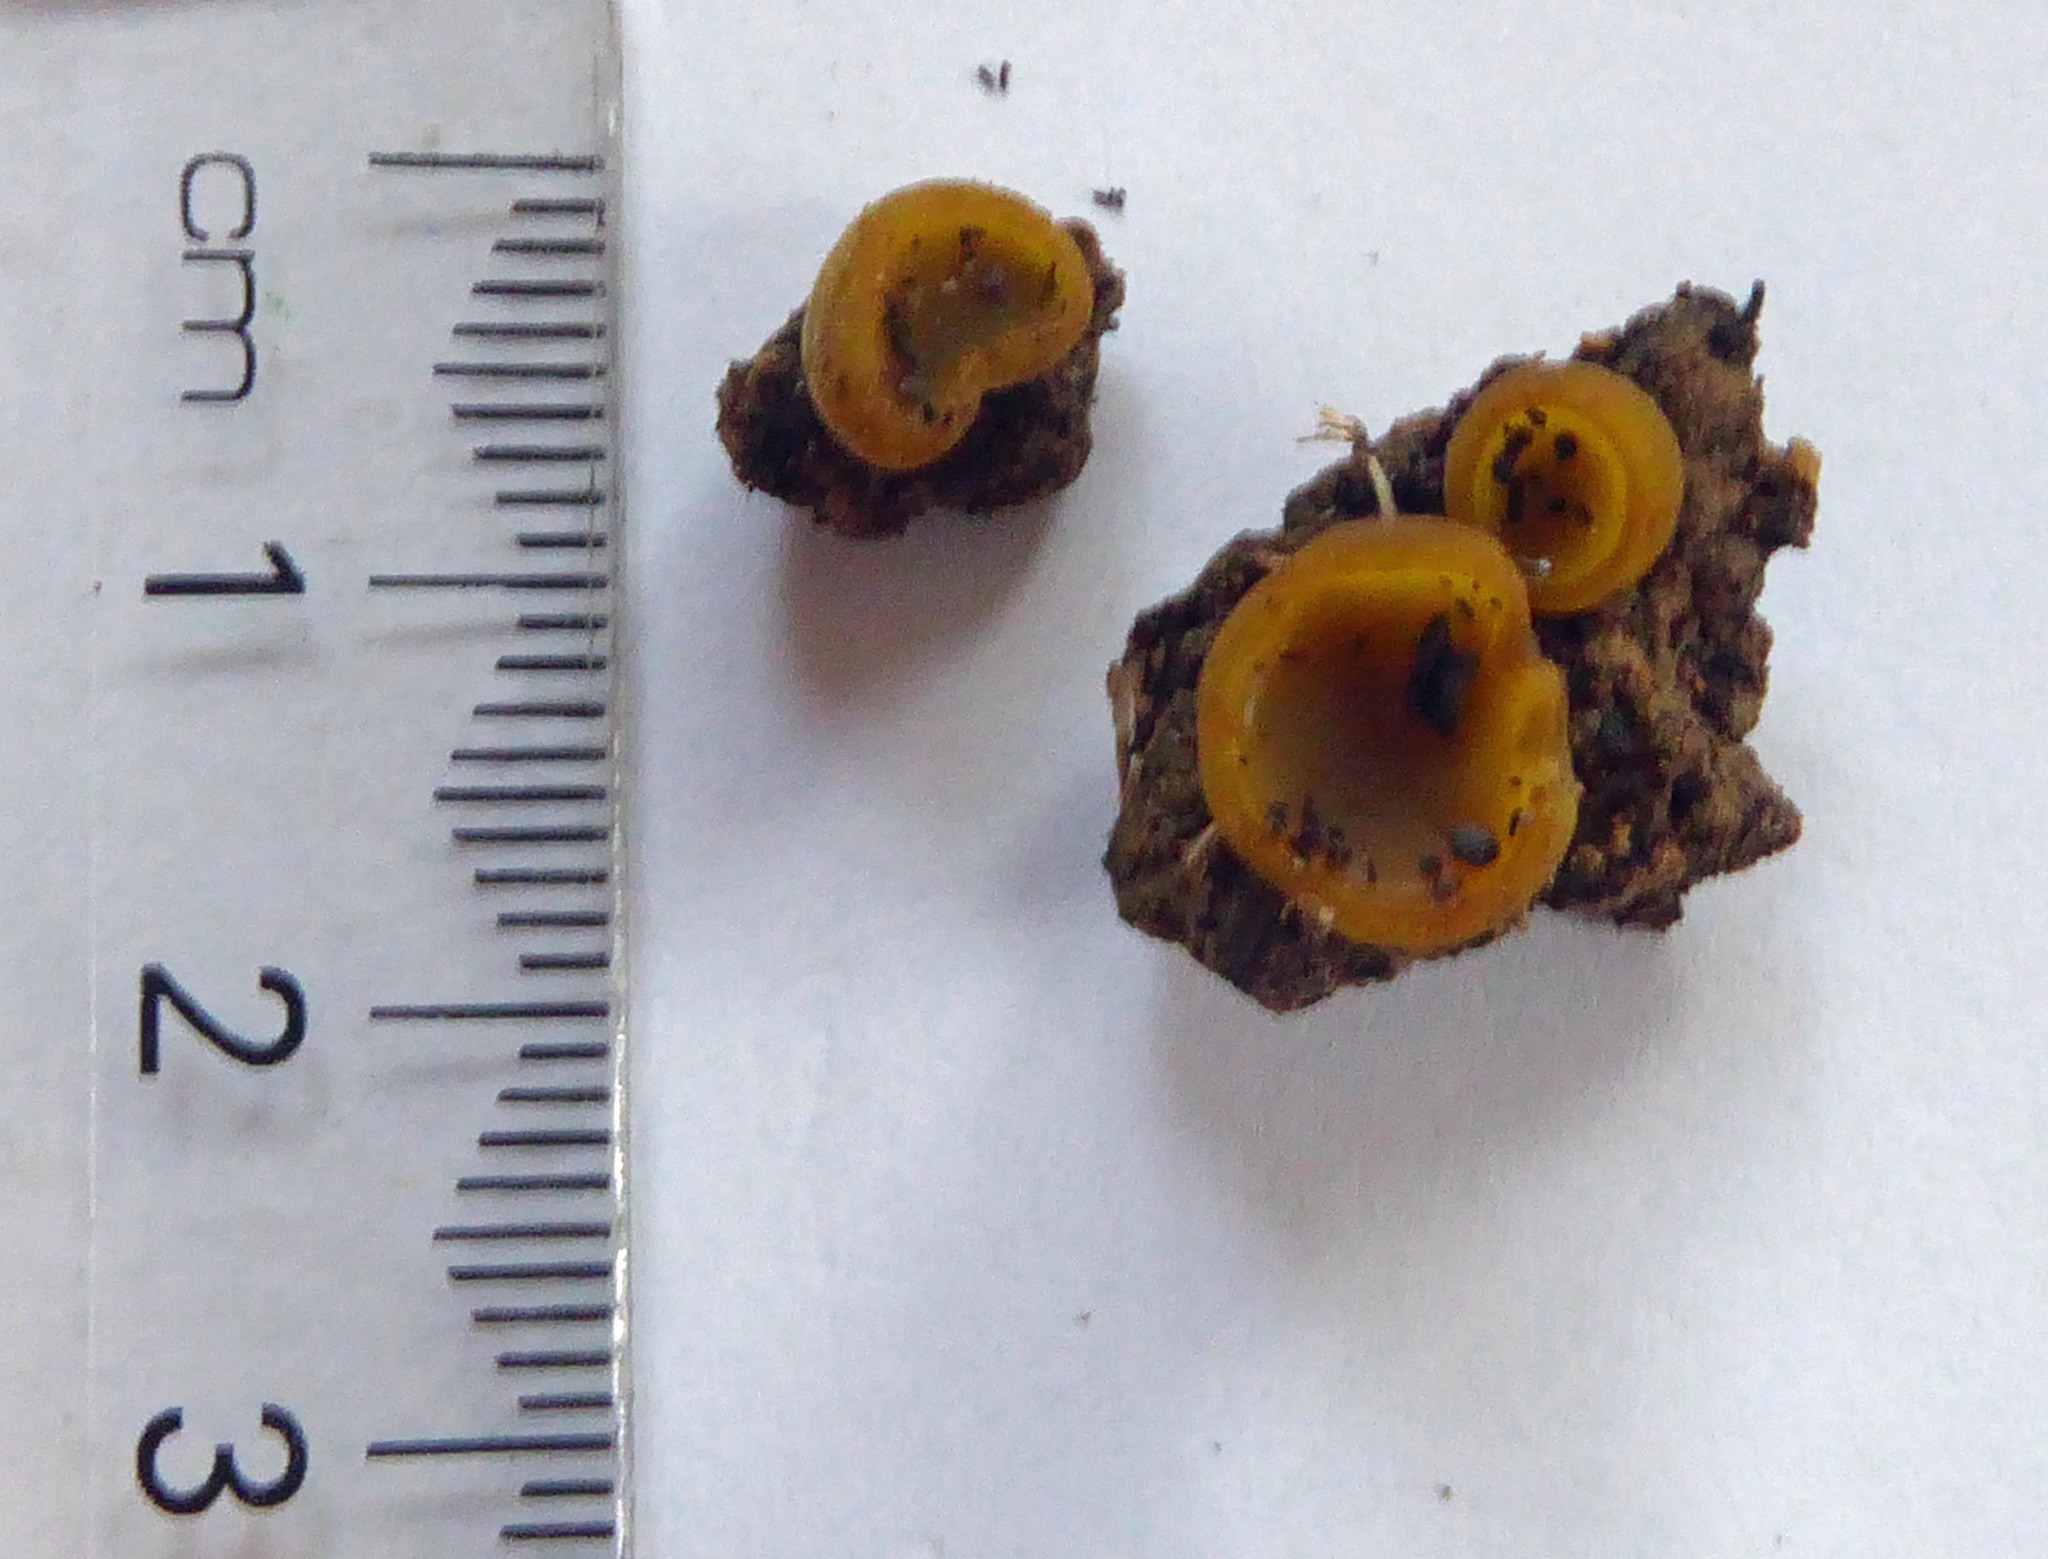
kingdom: Fungi
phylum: Ascomycota
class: Pezizomycetes
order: Pezizales
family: Pyronemataceae
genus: Aleurina
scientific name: Aleurina ferruginea
